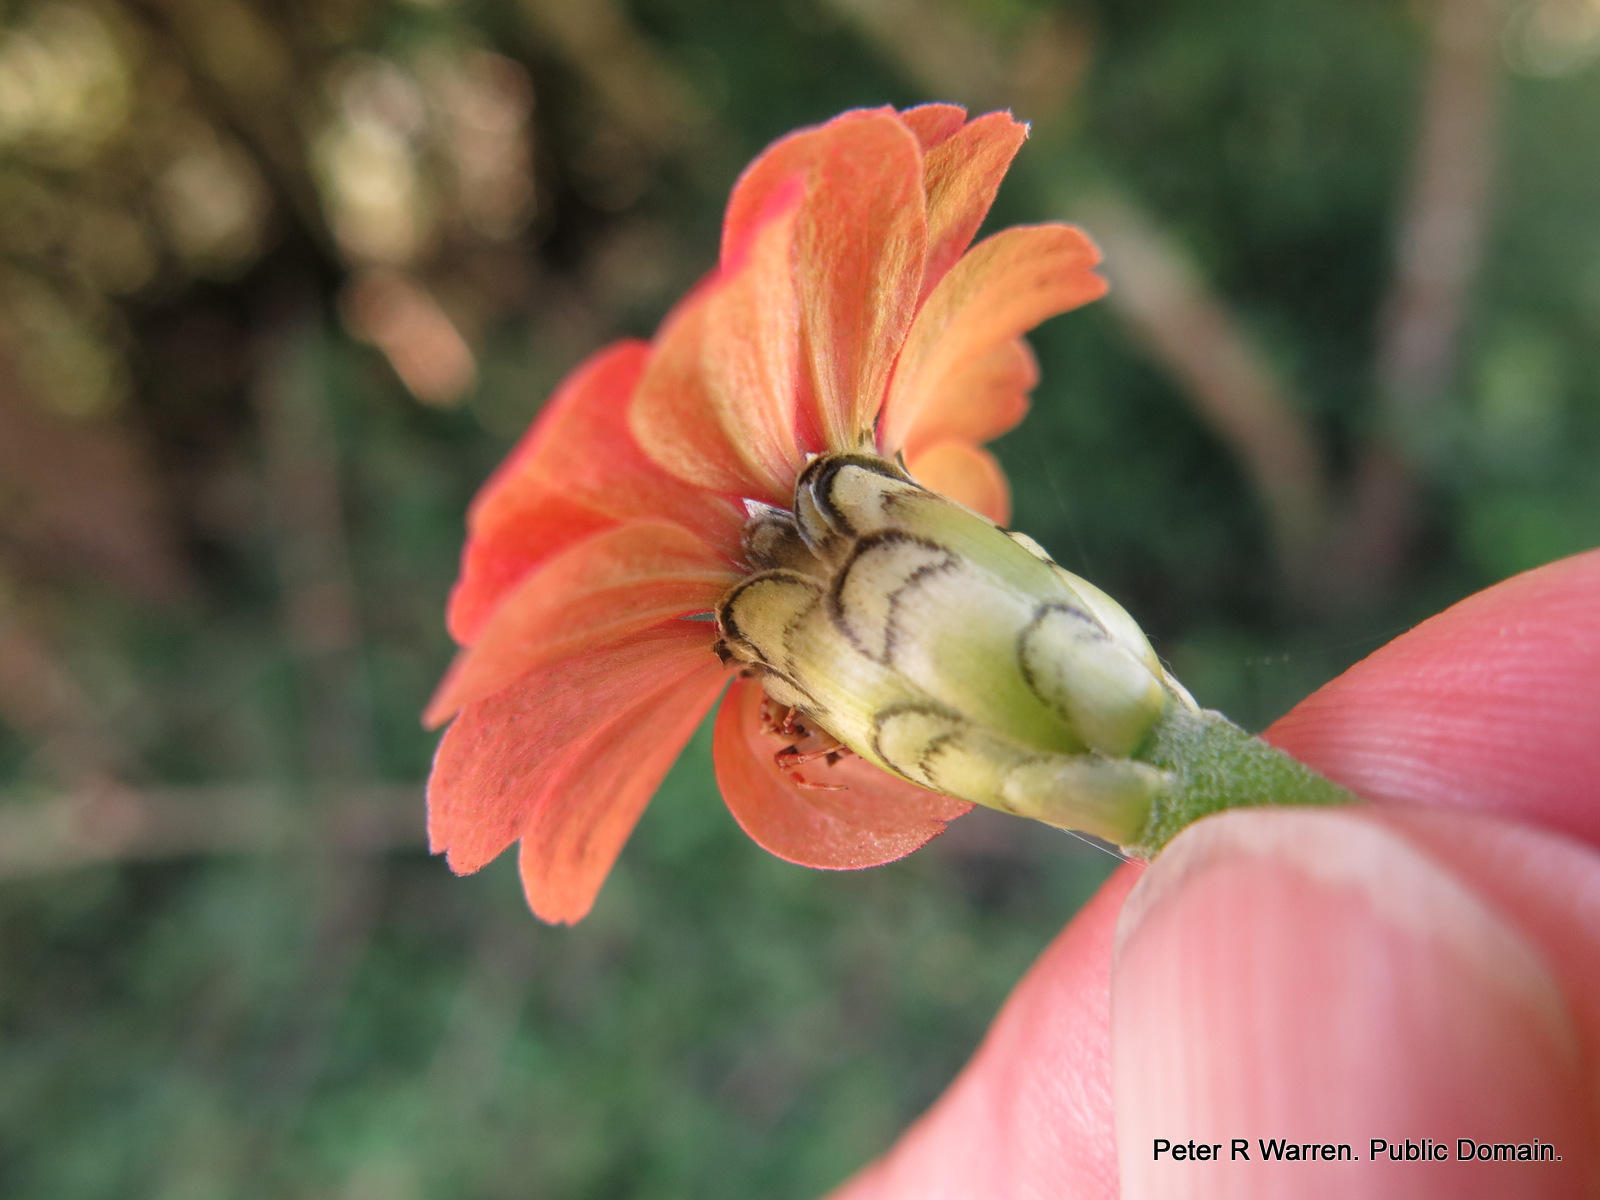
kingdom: Plantae
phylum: Tracheophyta
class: Magnoliopsida
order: Asterales
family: Asteraceae
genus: Zinnia
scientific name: Zinnia peruviana
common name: Peruvian zinnia
